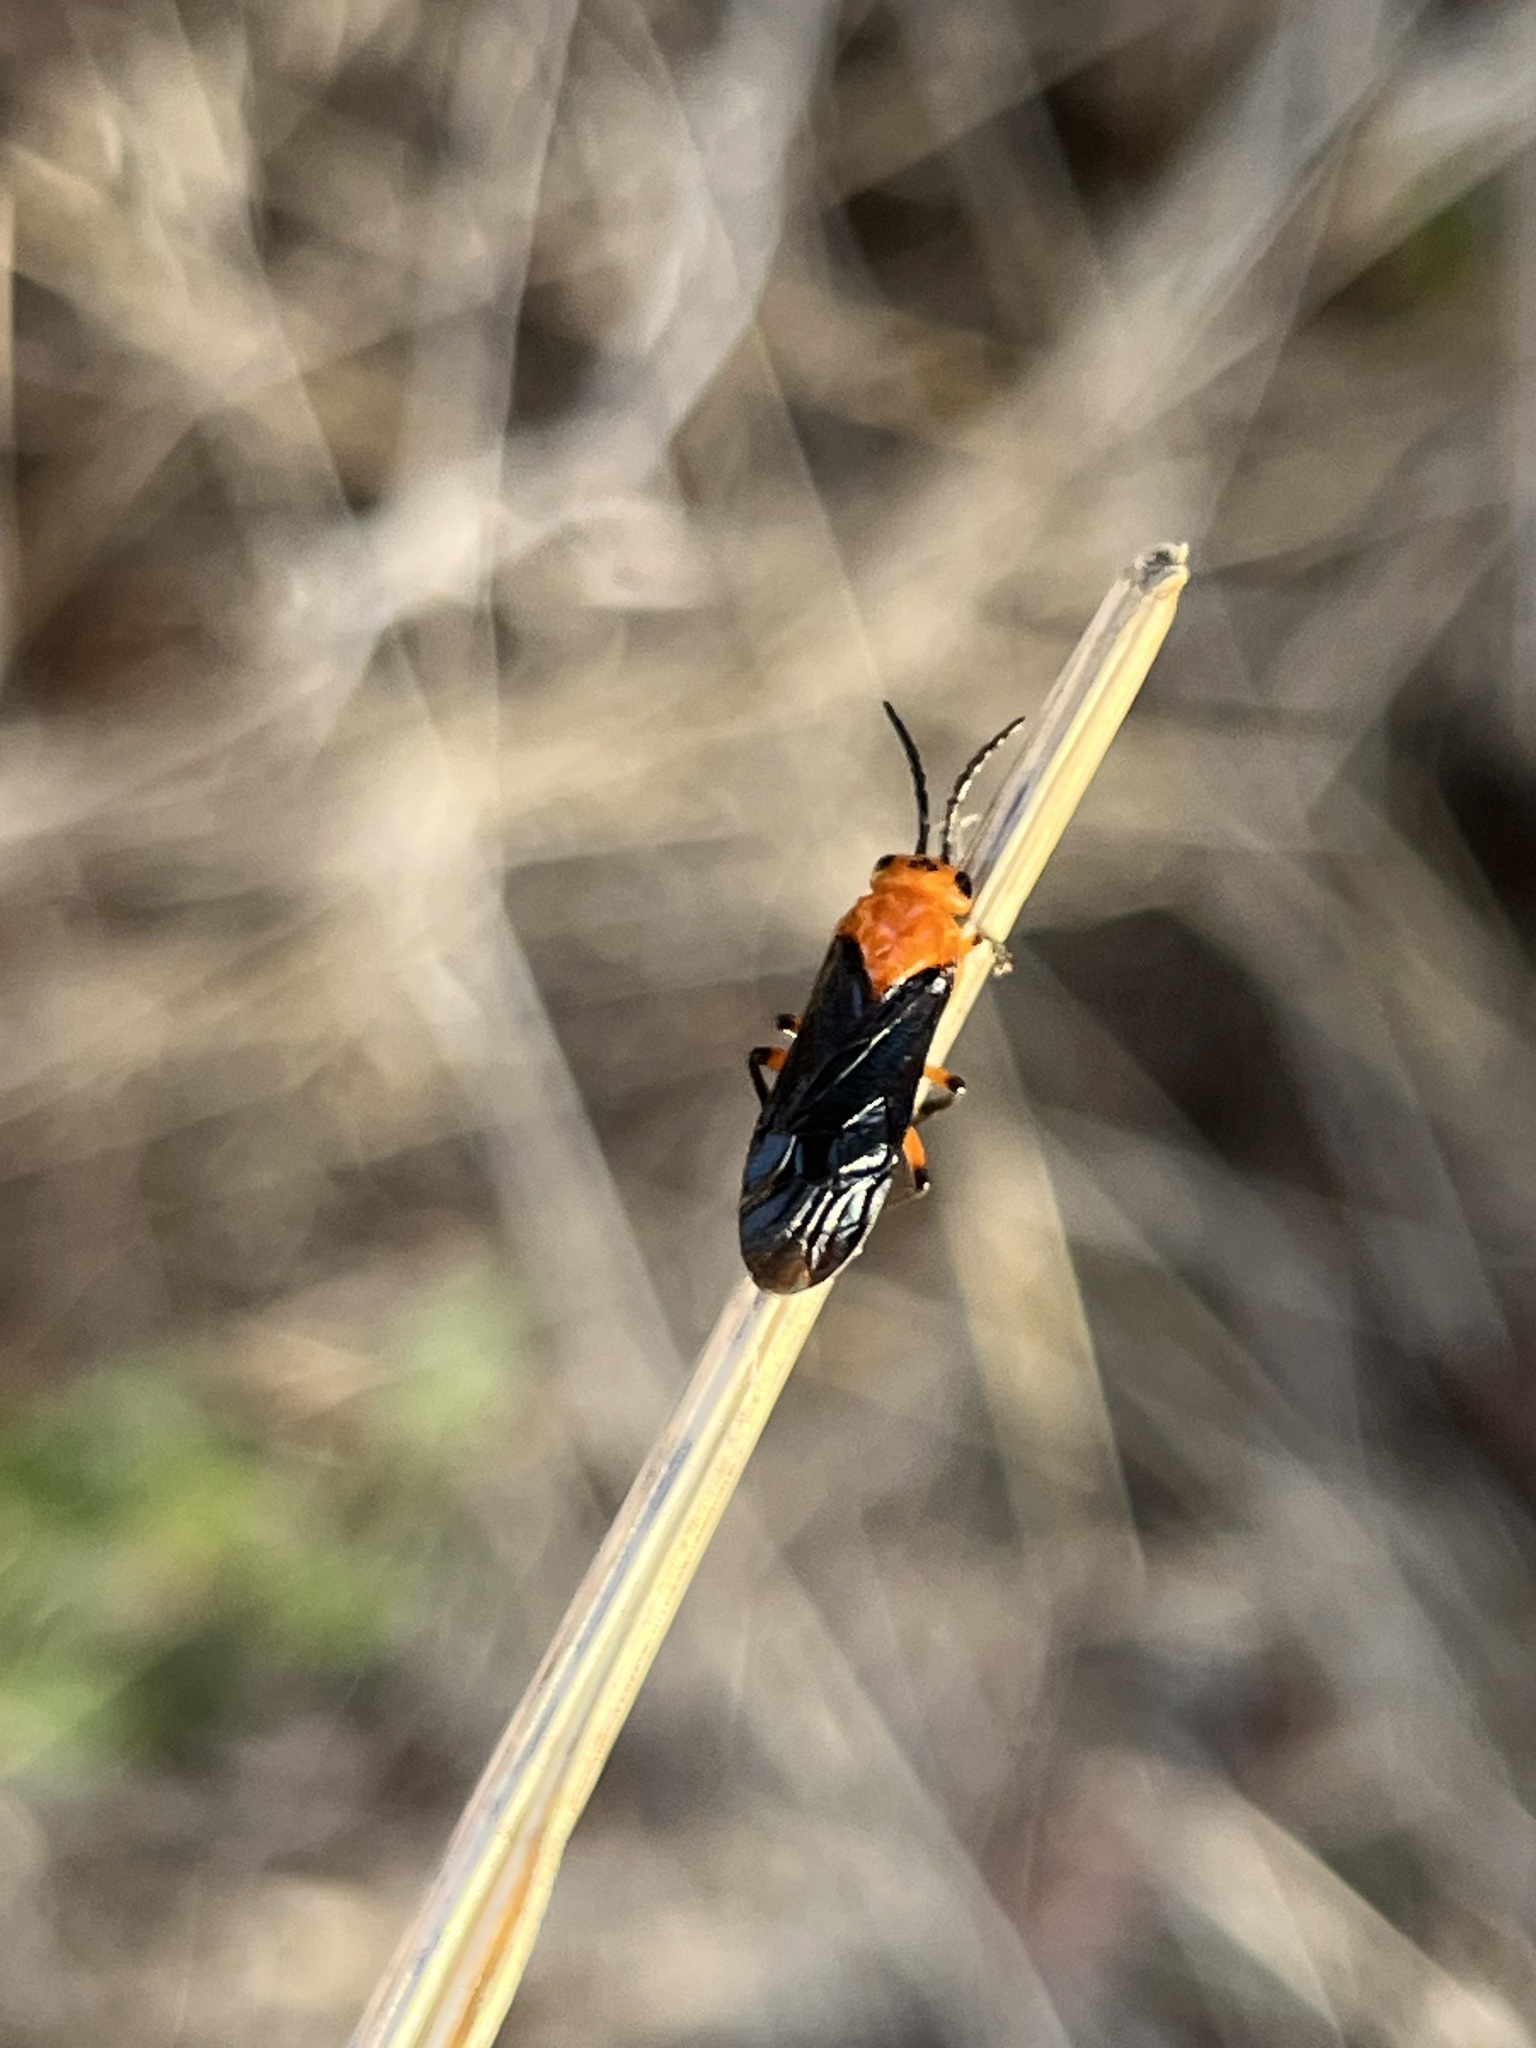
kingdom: Animalia
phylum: Arthropoda
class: Insecta
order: Hymenoptera
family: Tenthredinidae
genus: Ceratulus
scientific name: Ceratulus
